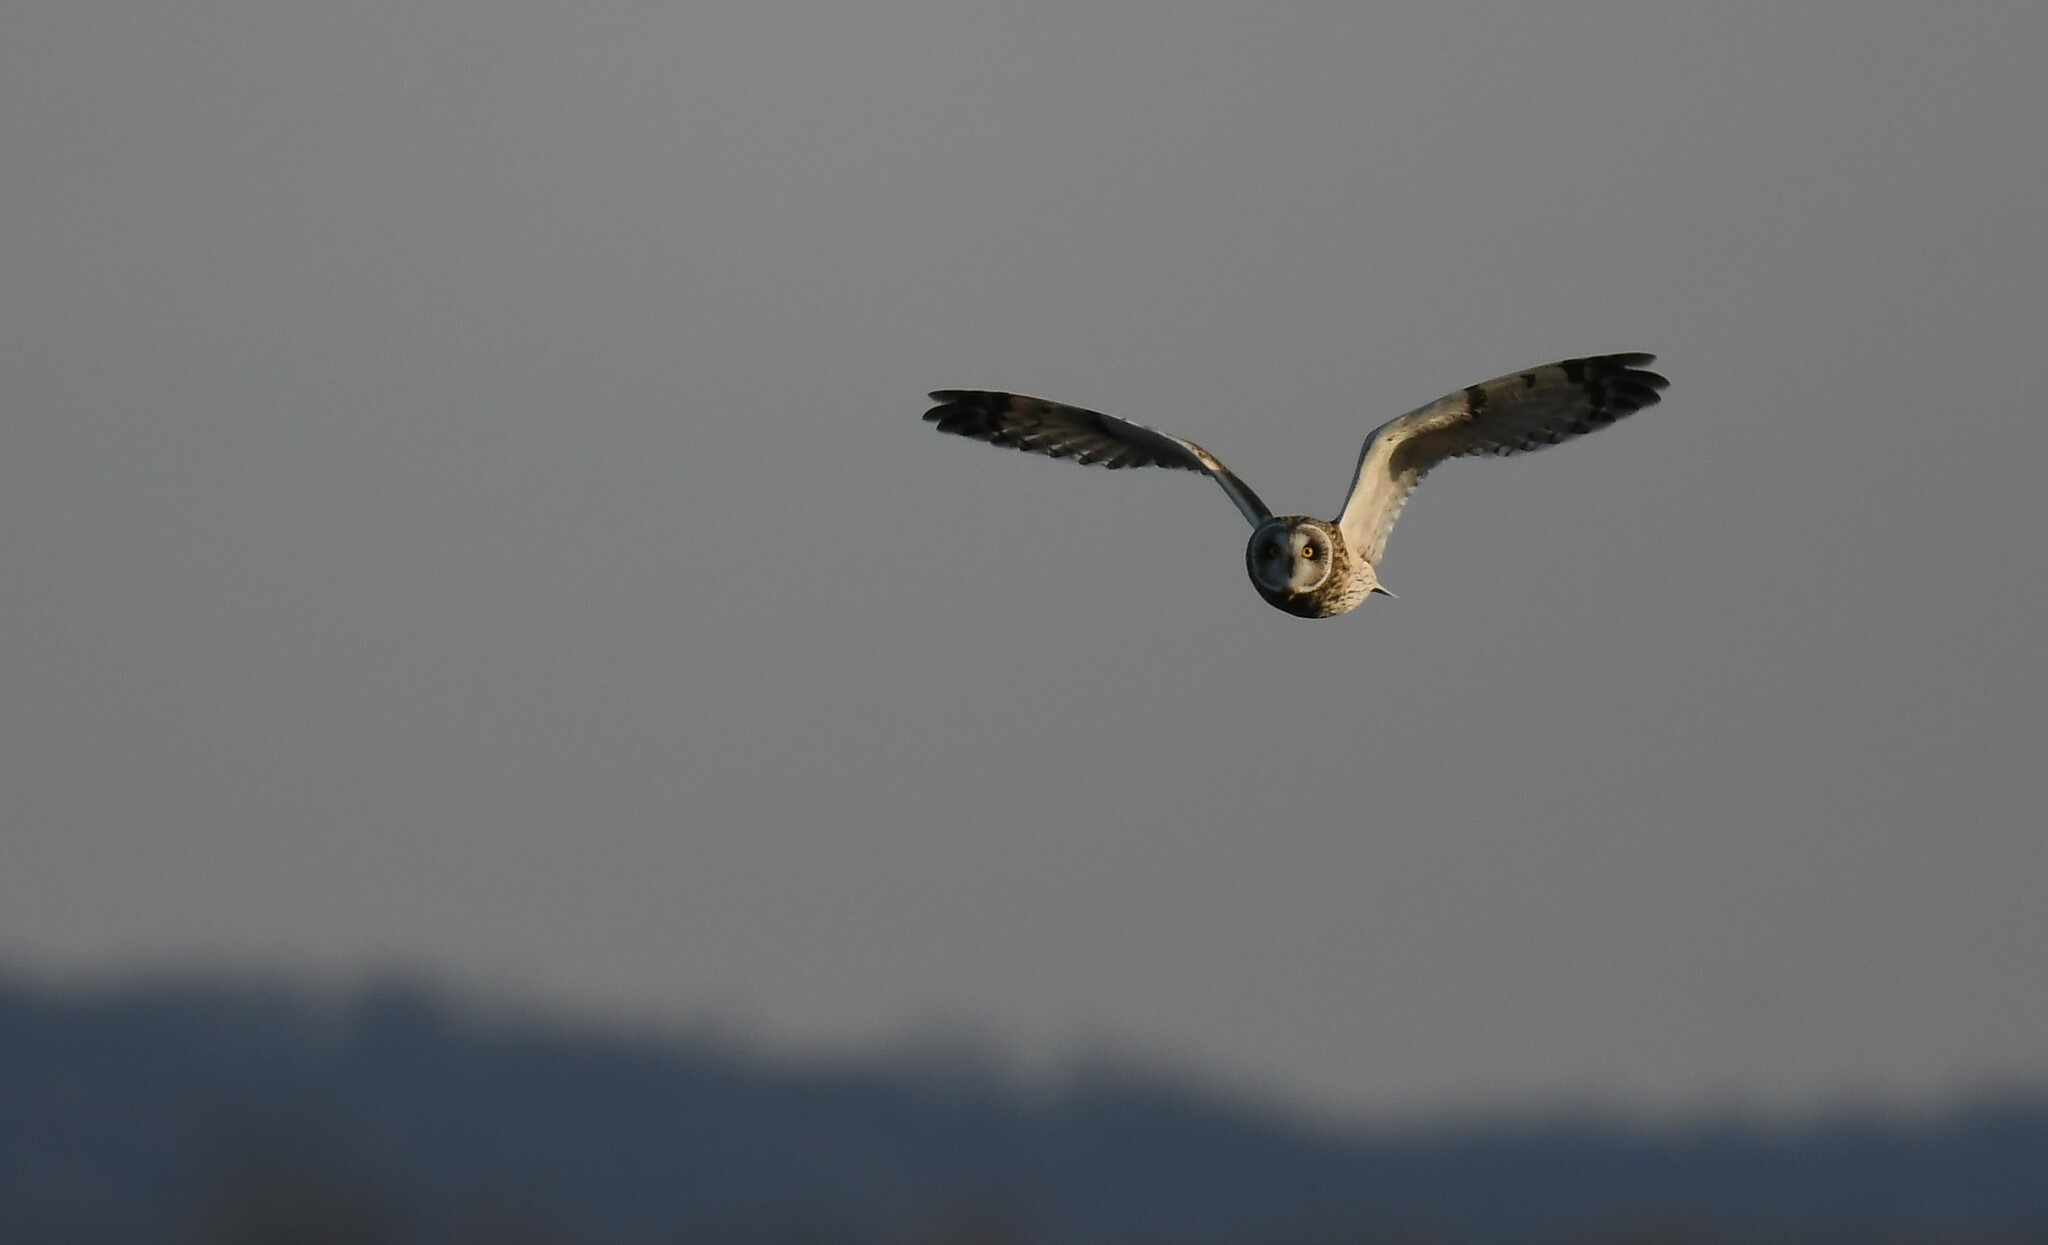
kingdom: Animalia
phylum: Chordata
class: Aves
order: Strigiformes
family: Strigidae
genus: Asio
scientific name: Asio flammeus
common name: Short-eared owl
